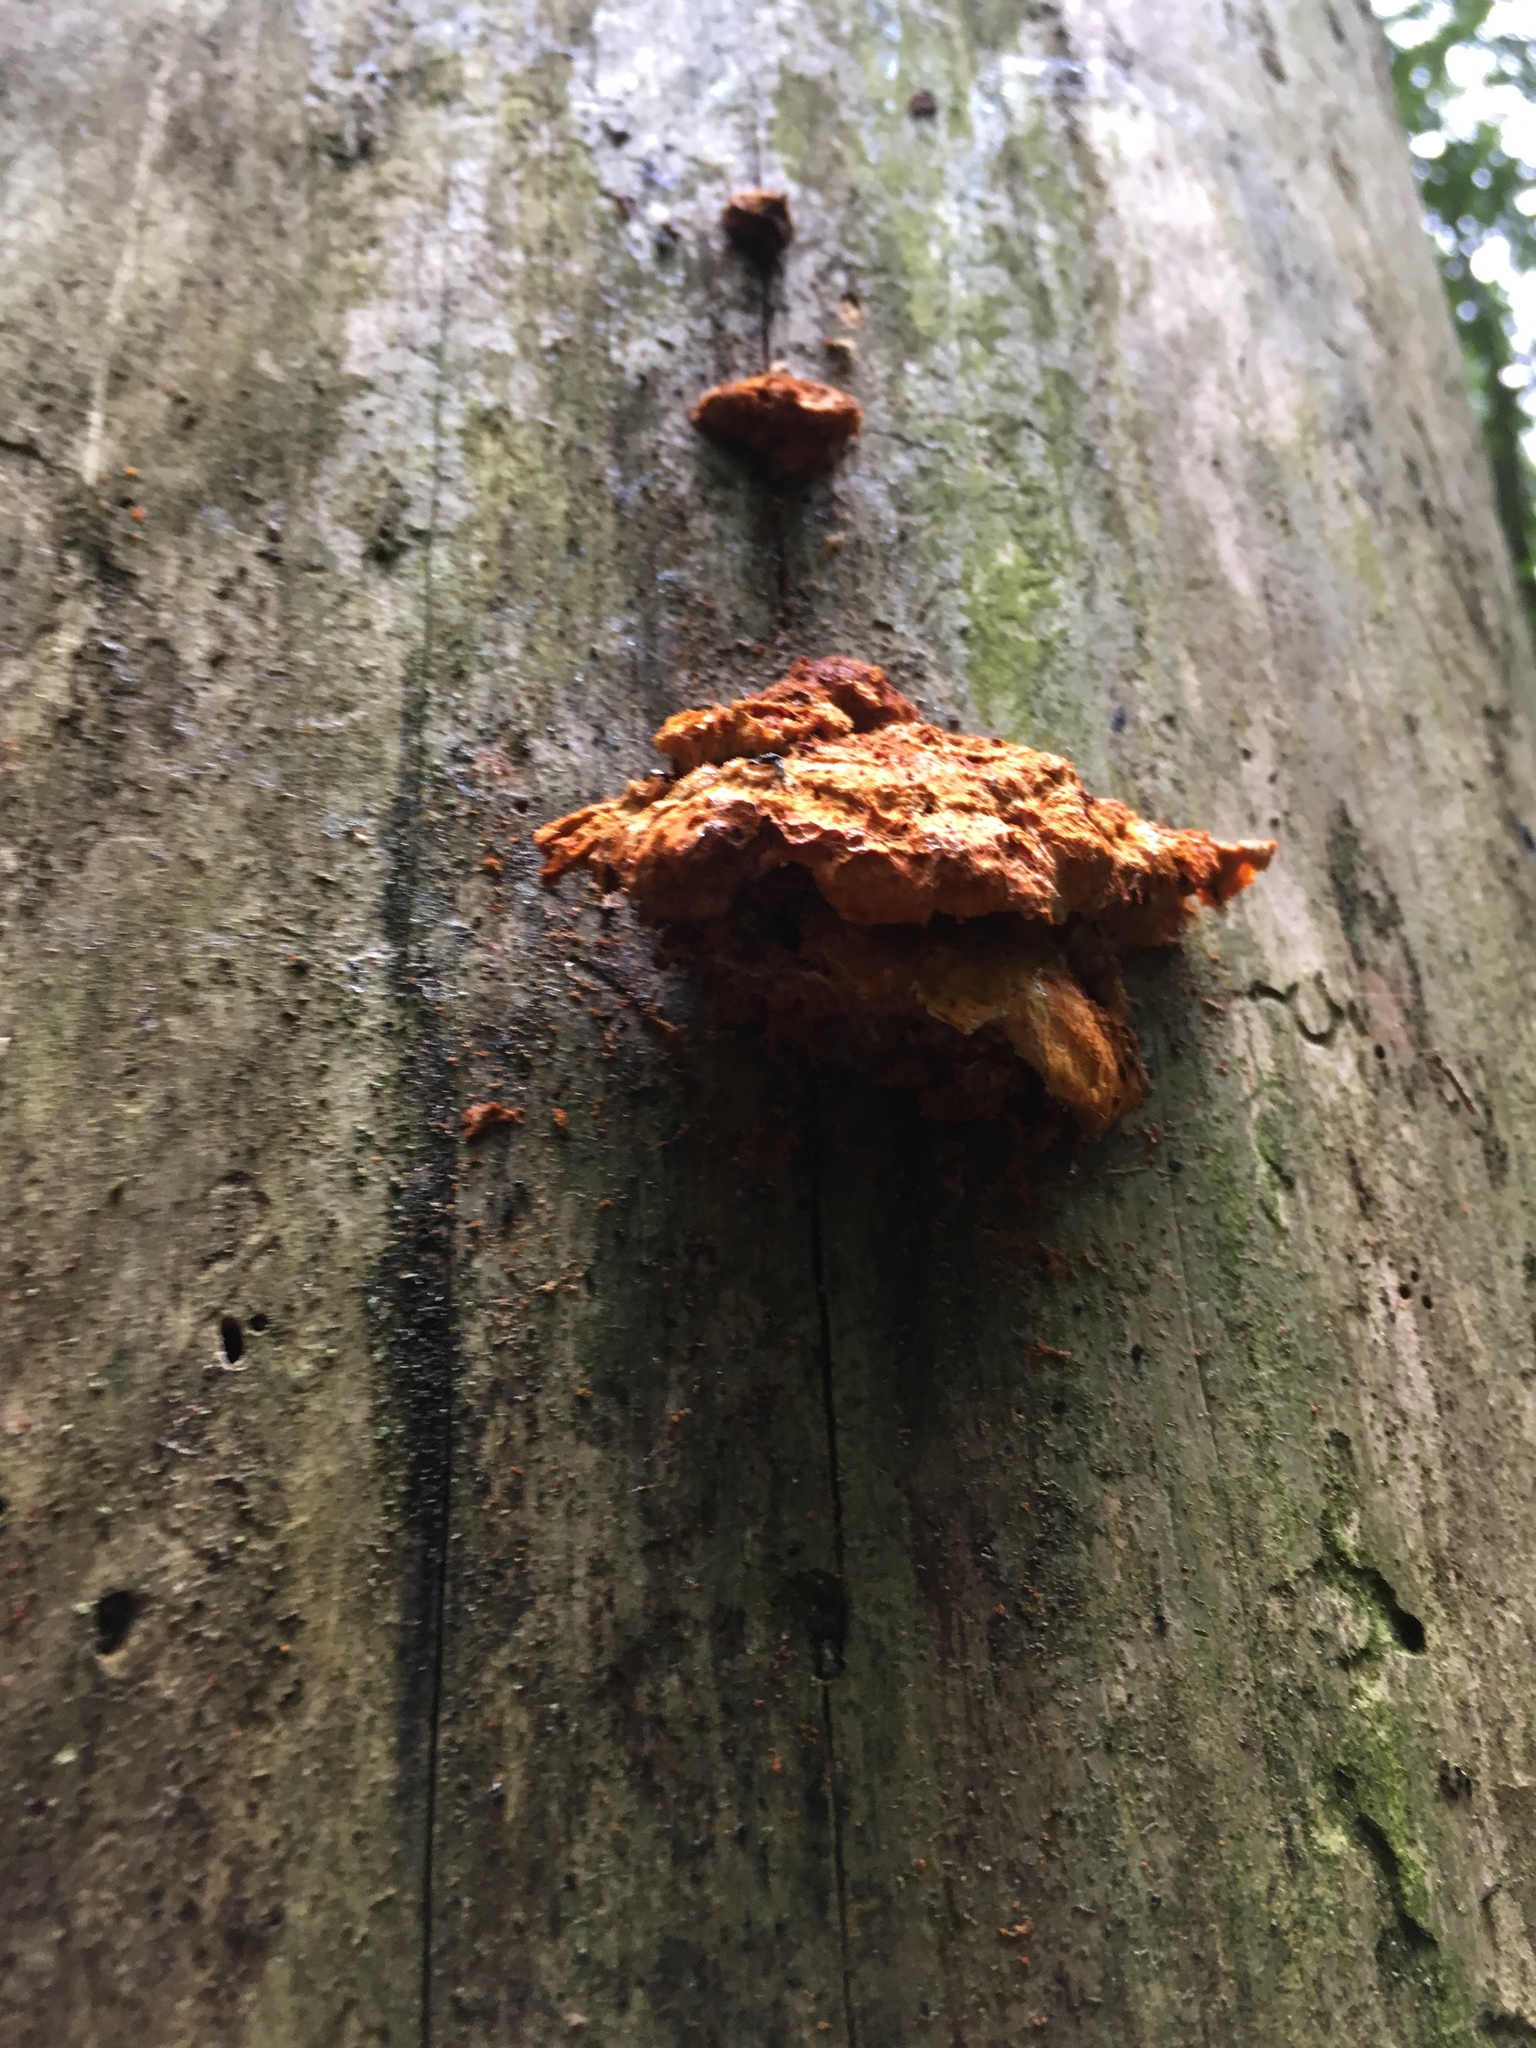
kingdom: Fungi
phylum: Basidiomycota
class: Agaricomycetes
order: Polyporales
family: Pycnoporellaceae
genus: Pycnoporellus
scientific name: Pycnoporellus fulgens
